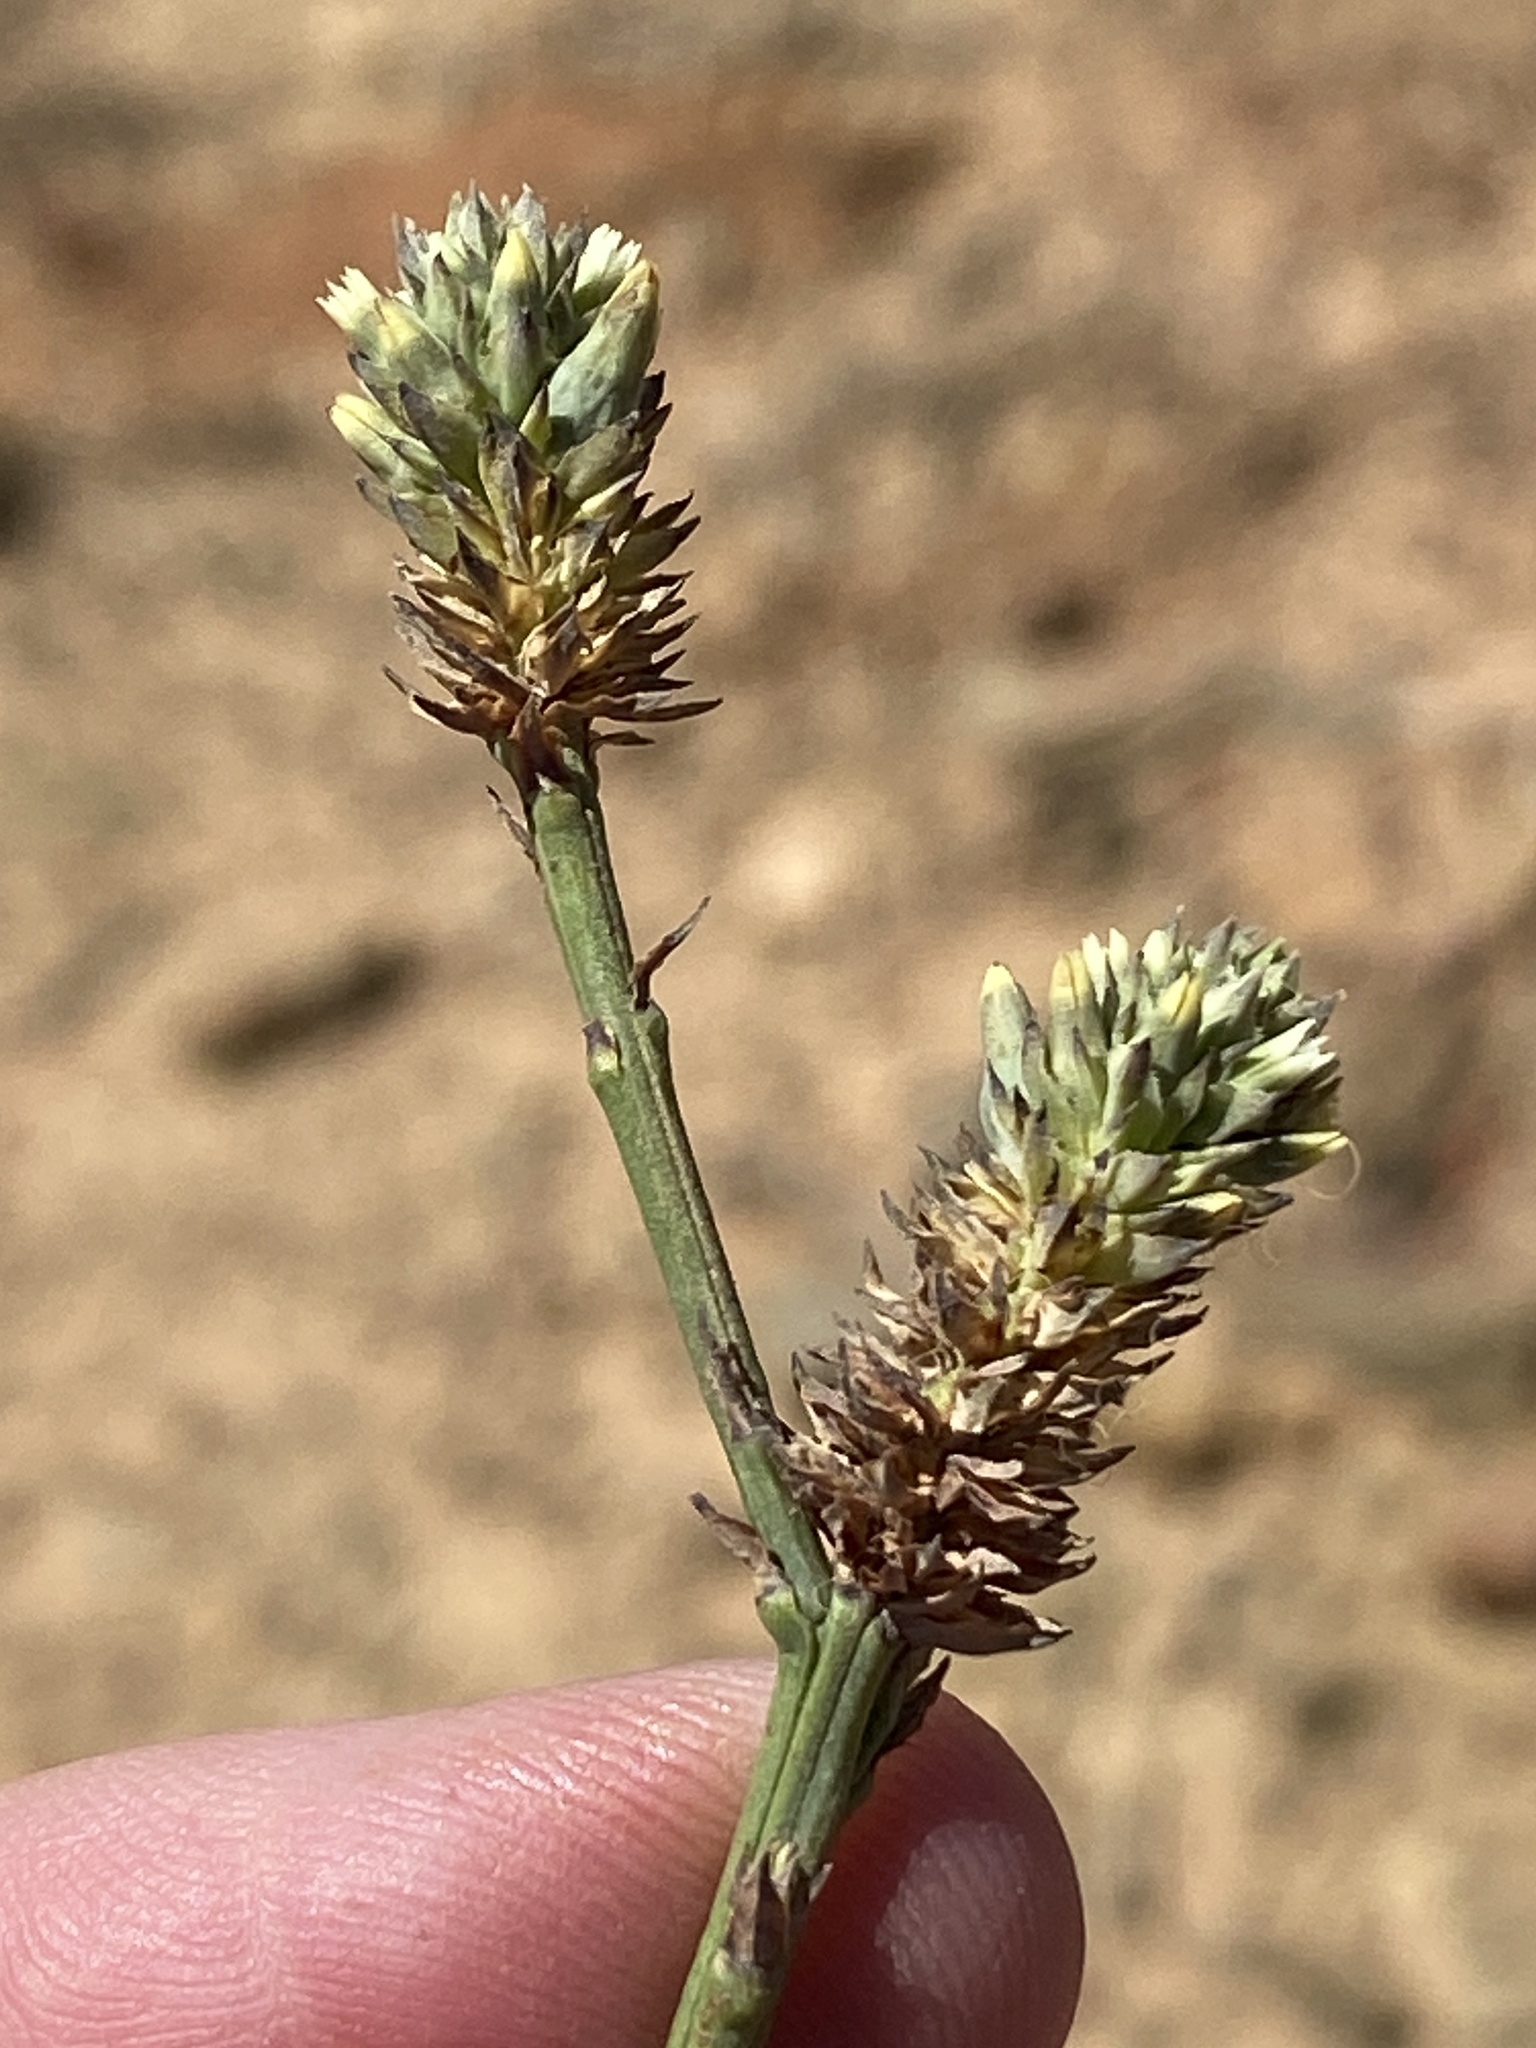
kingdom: Plantae
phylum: Tracheophyta
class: Magnoliopsida
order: Santalales
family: Thesiaceae
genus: Thesium
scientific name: Thesium aggregatum
